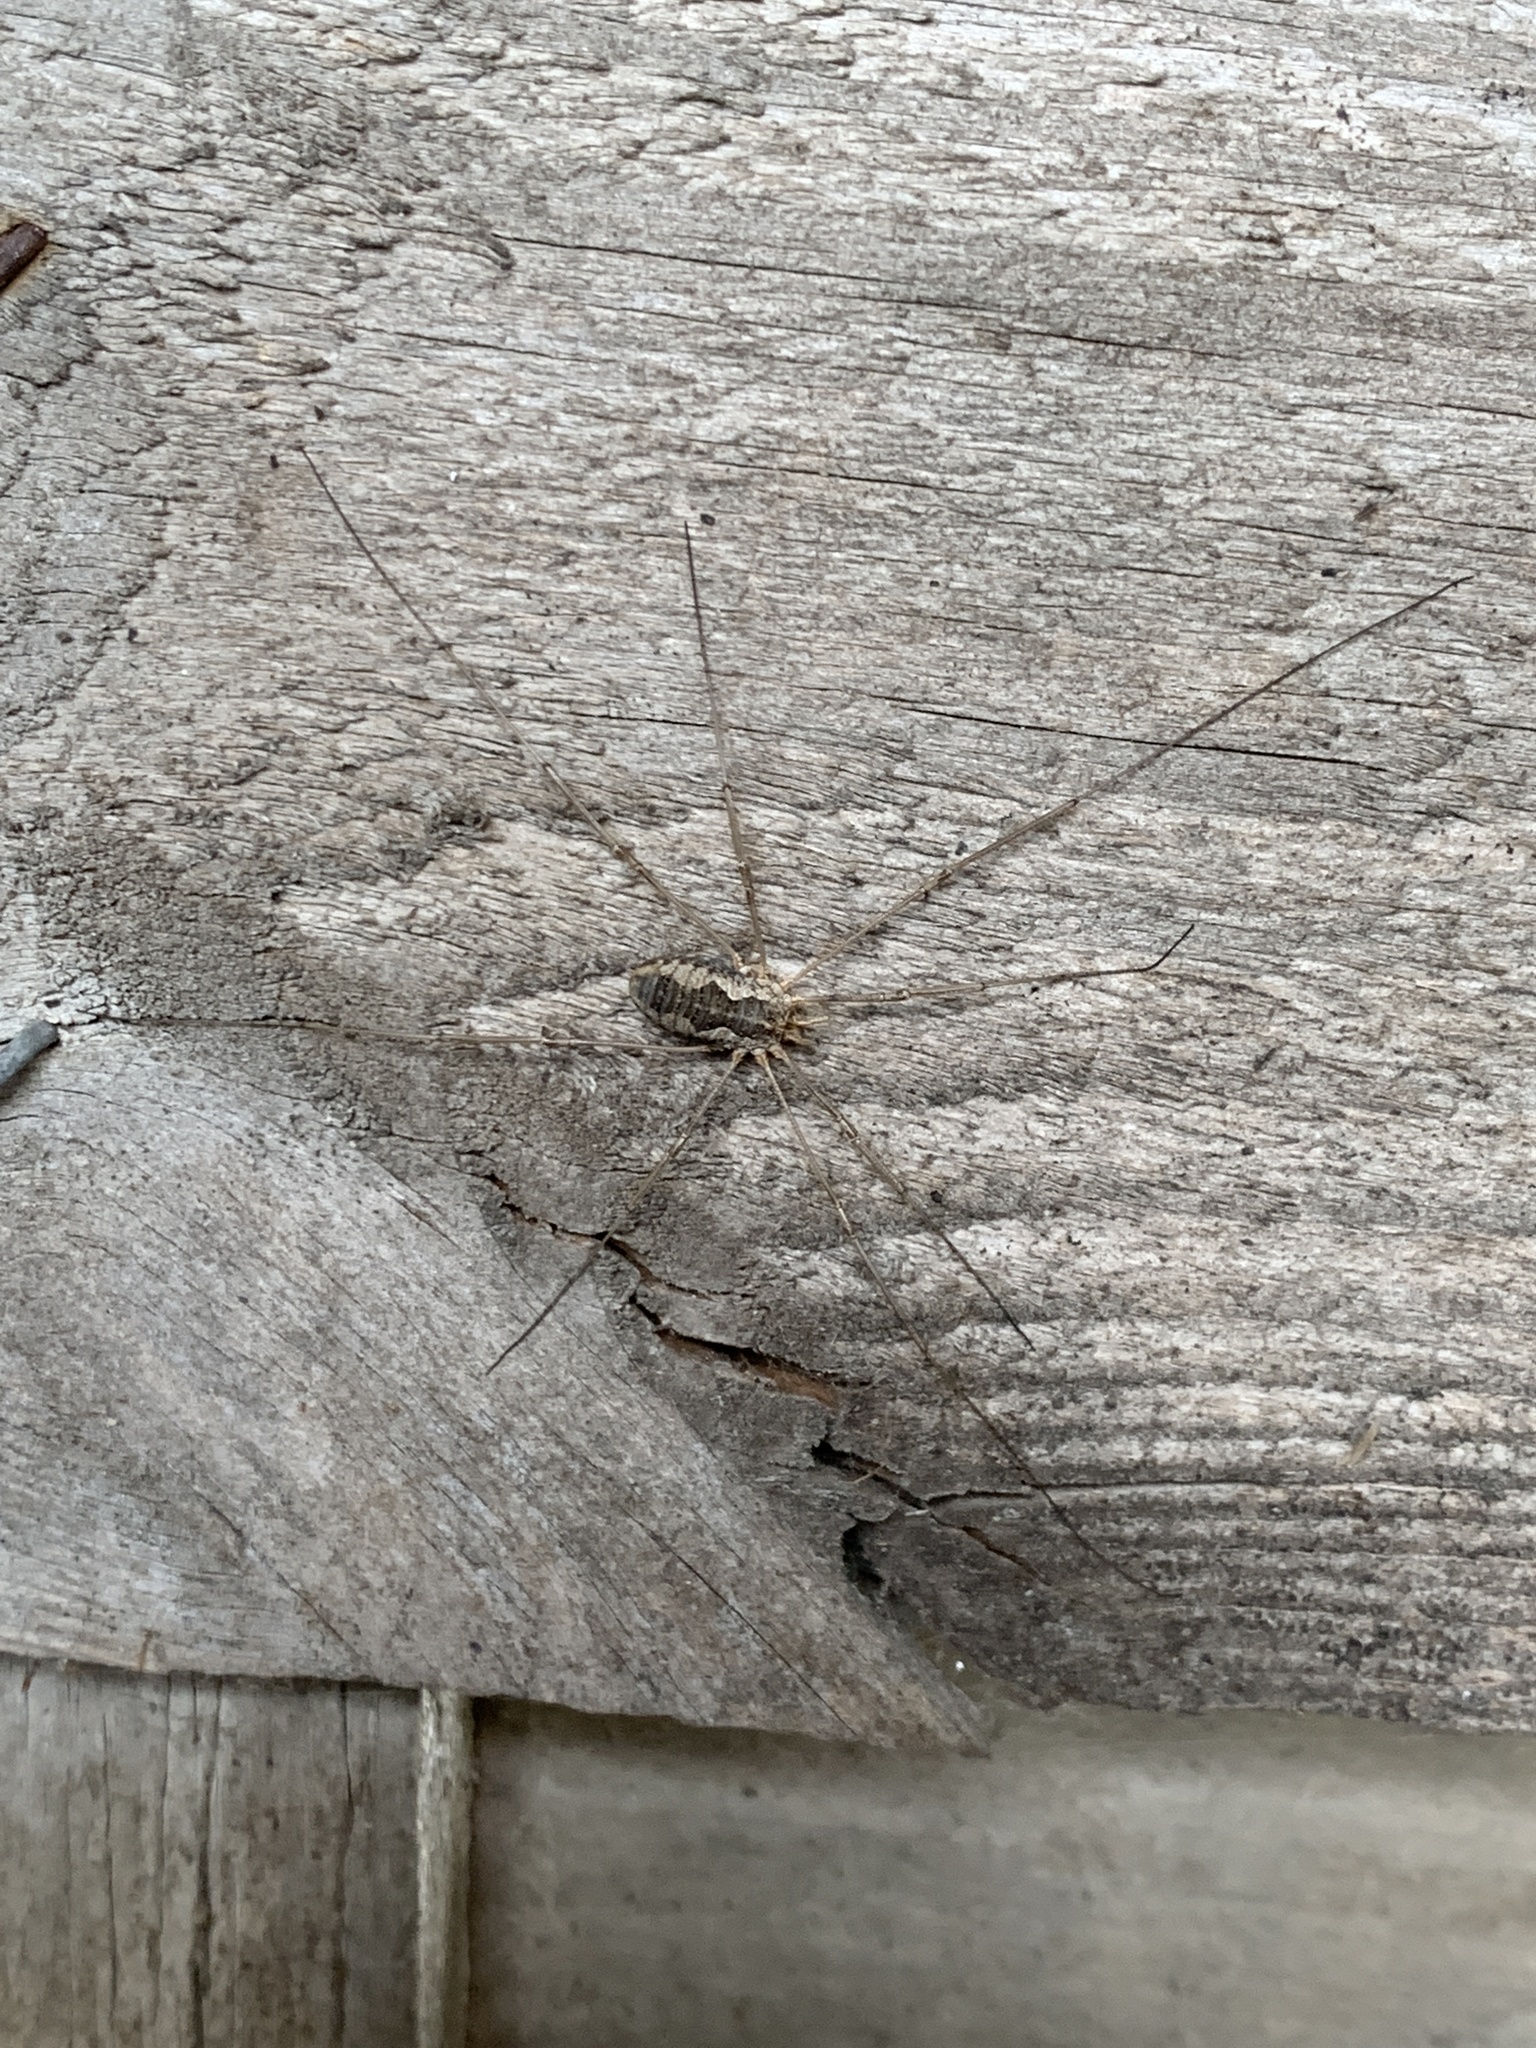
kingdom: Animalia
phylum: Arthropoda
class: Arachnida
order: Opiliones
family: Phalangiidae
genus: Phalangium
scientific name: Phalangium opilio
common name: Daddy longleg
